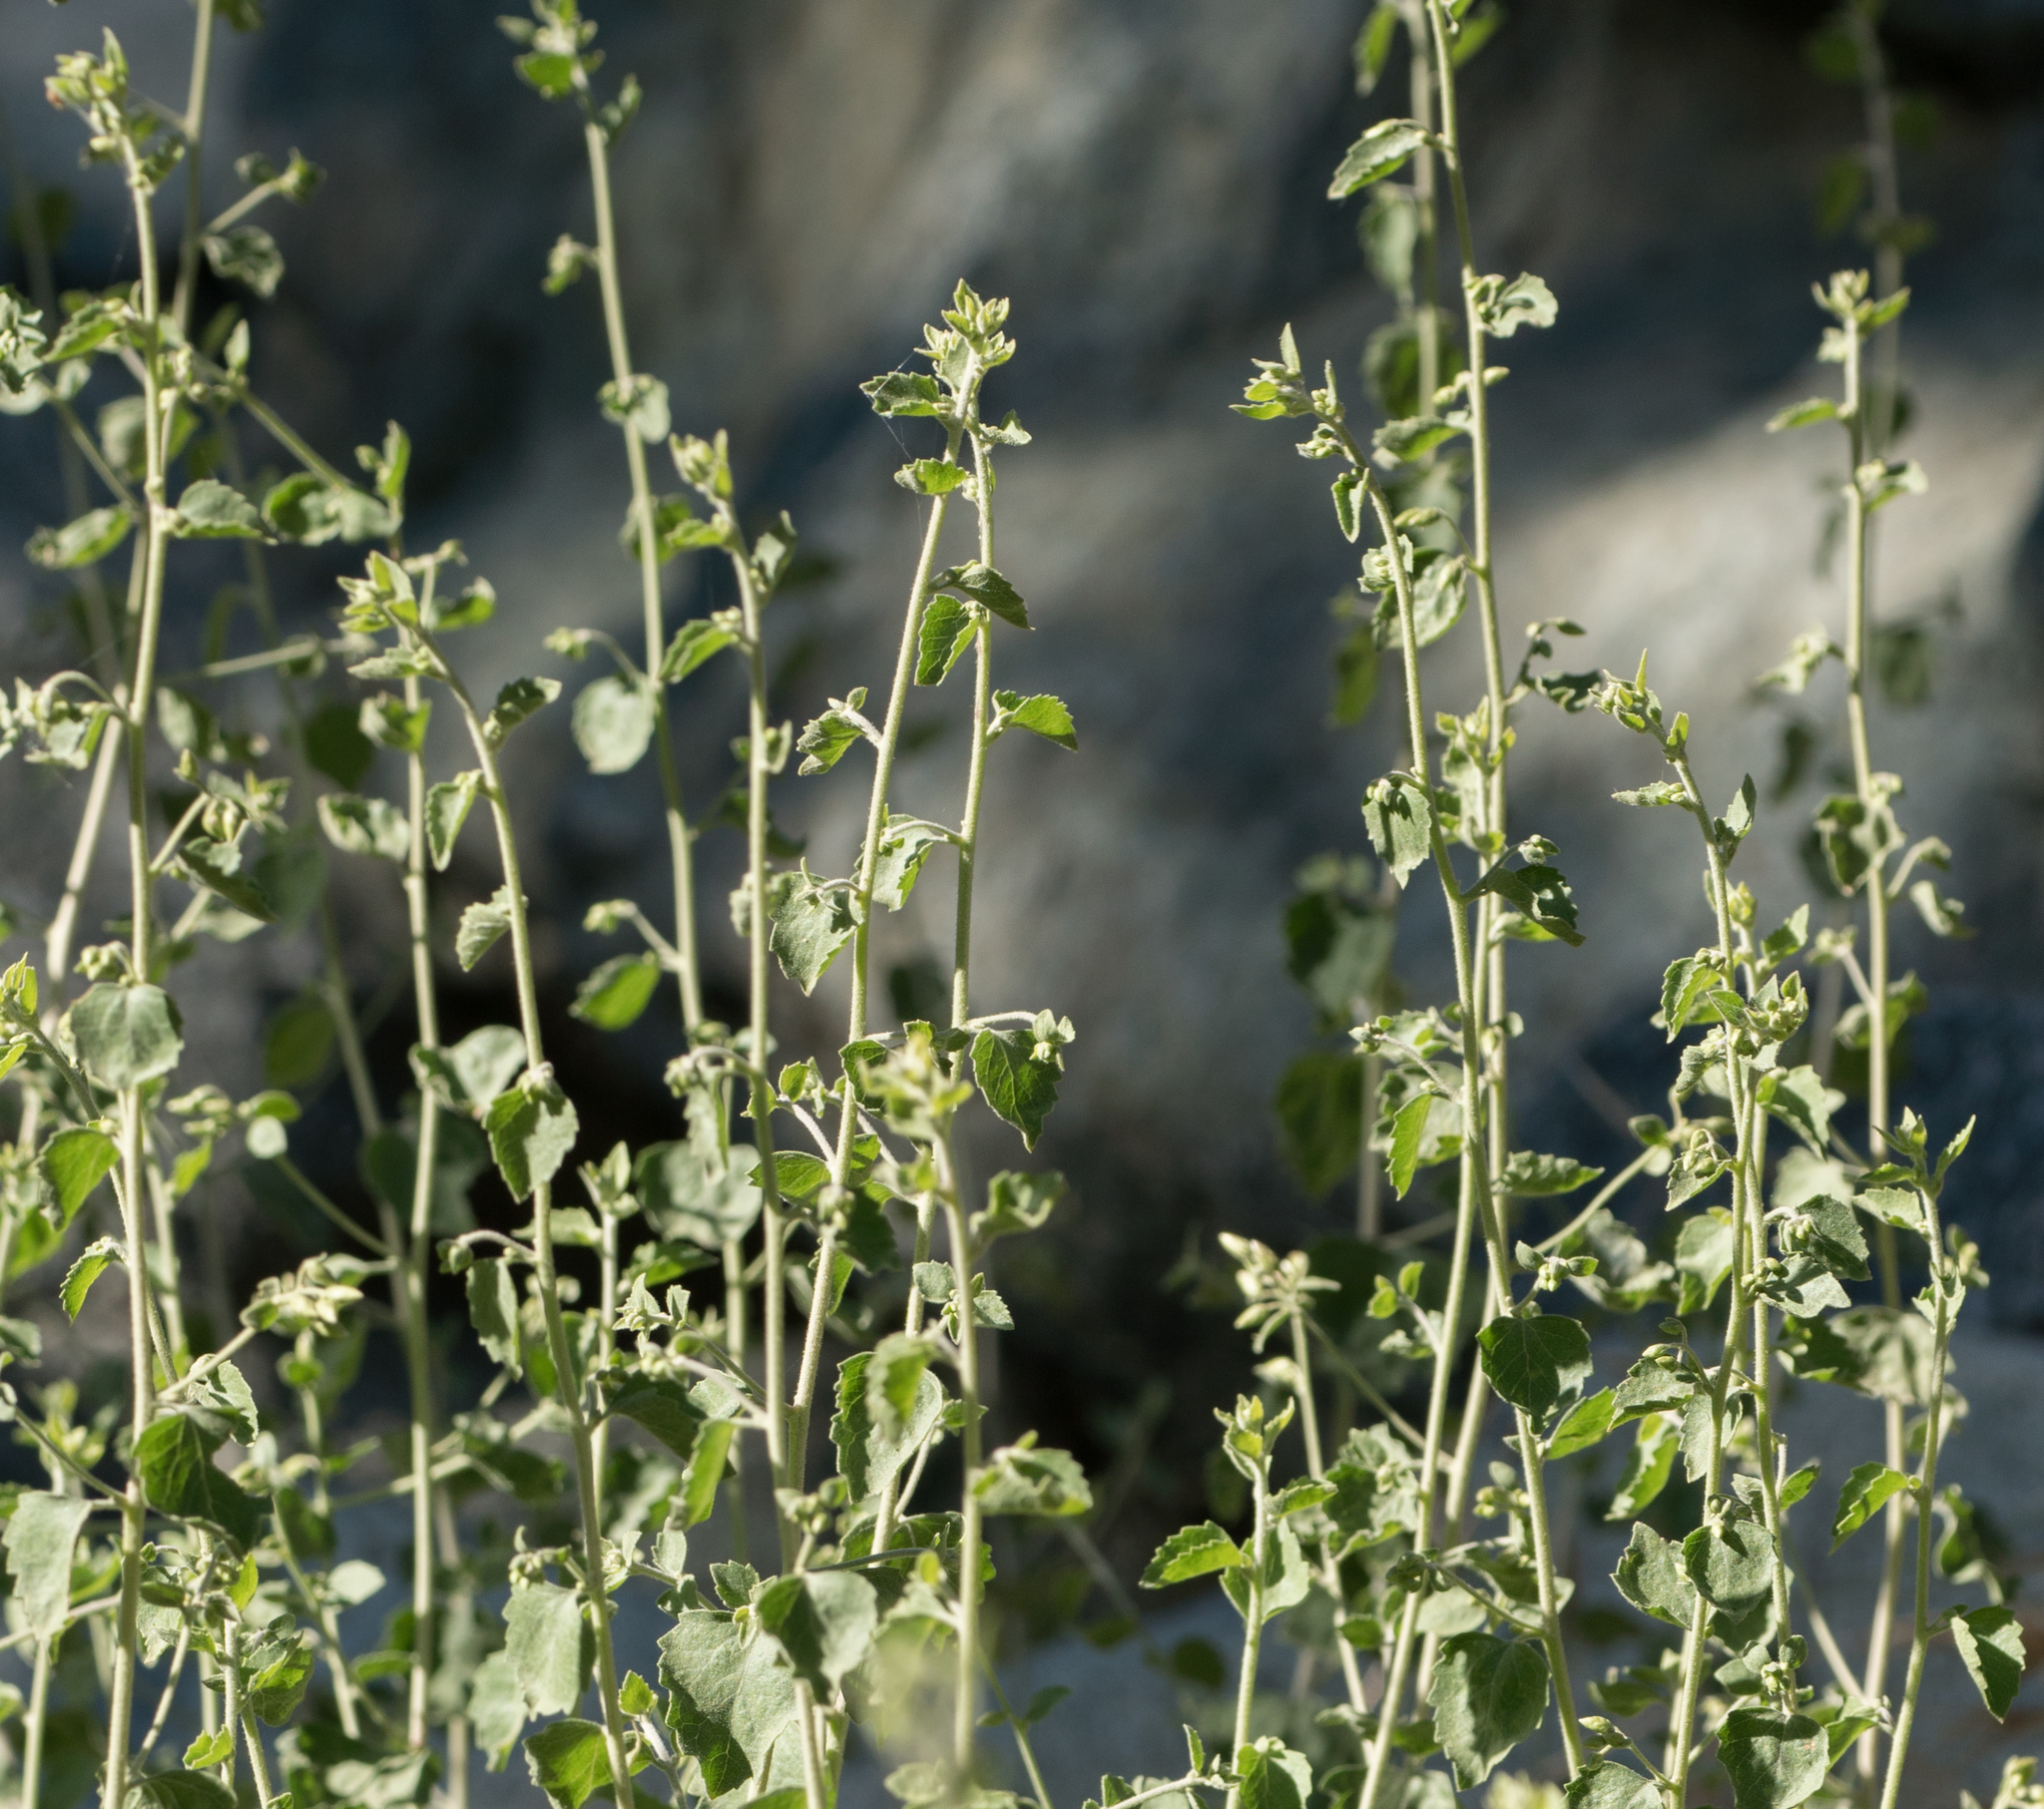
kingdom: Plantae
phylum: Tracheophyta
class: Magnoliopsida
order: Asterales
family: Asteraceae
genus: Brickellia
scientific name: Brickellia californica
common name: California brickellbush
